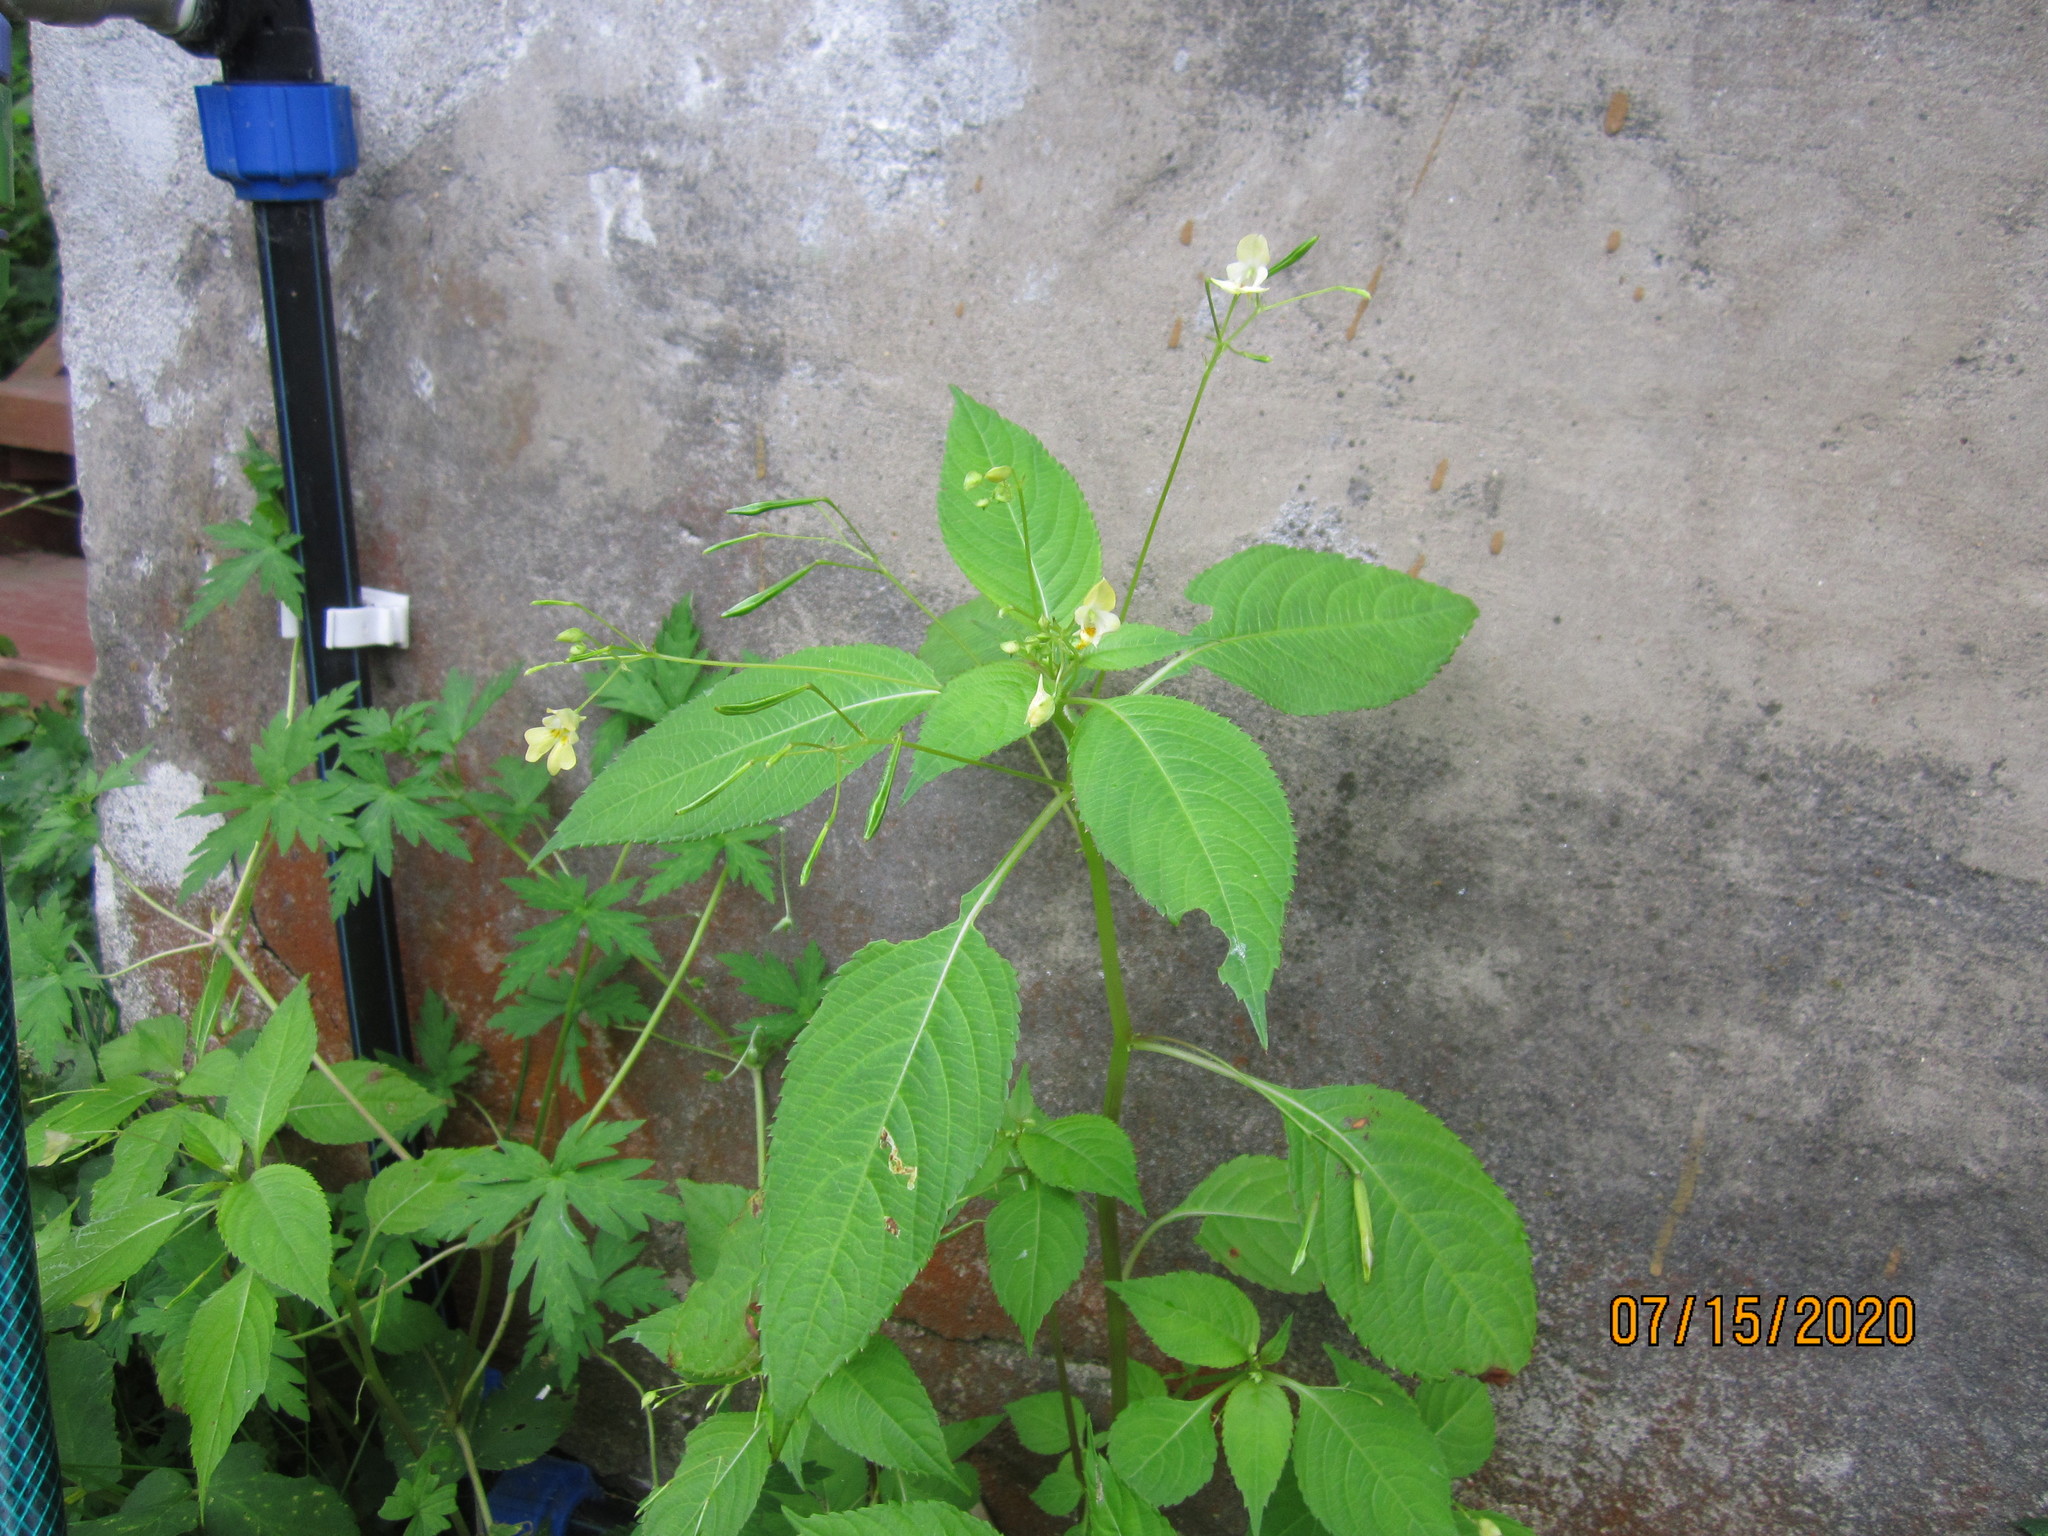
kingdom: Plantae
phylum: Tracheophyta
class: Magnoliopsida
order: Ericales
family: Balsaminaceae
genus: Impatiens
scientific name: Impatiens parviflora
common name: Small balsam
